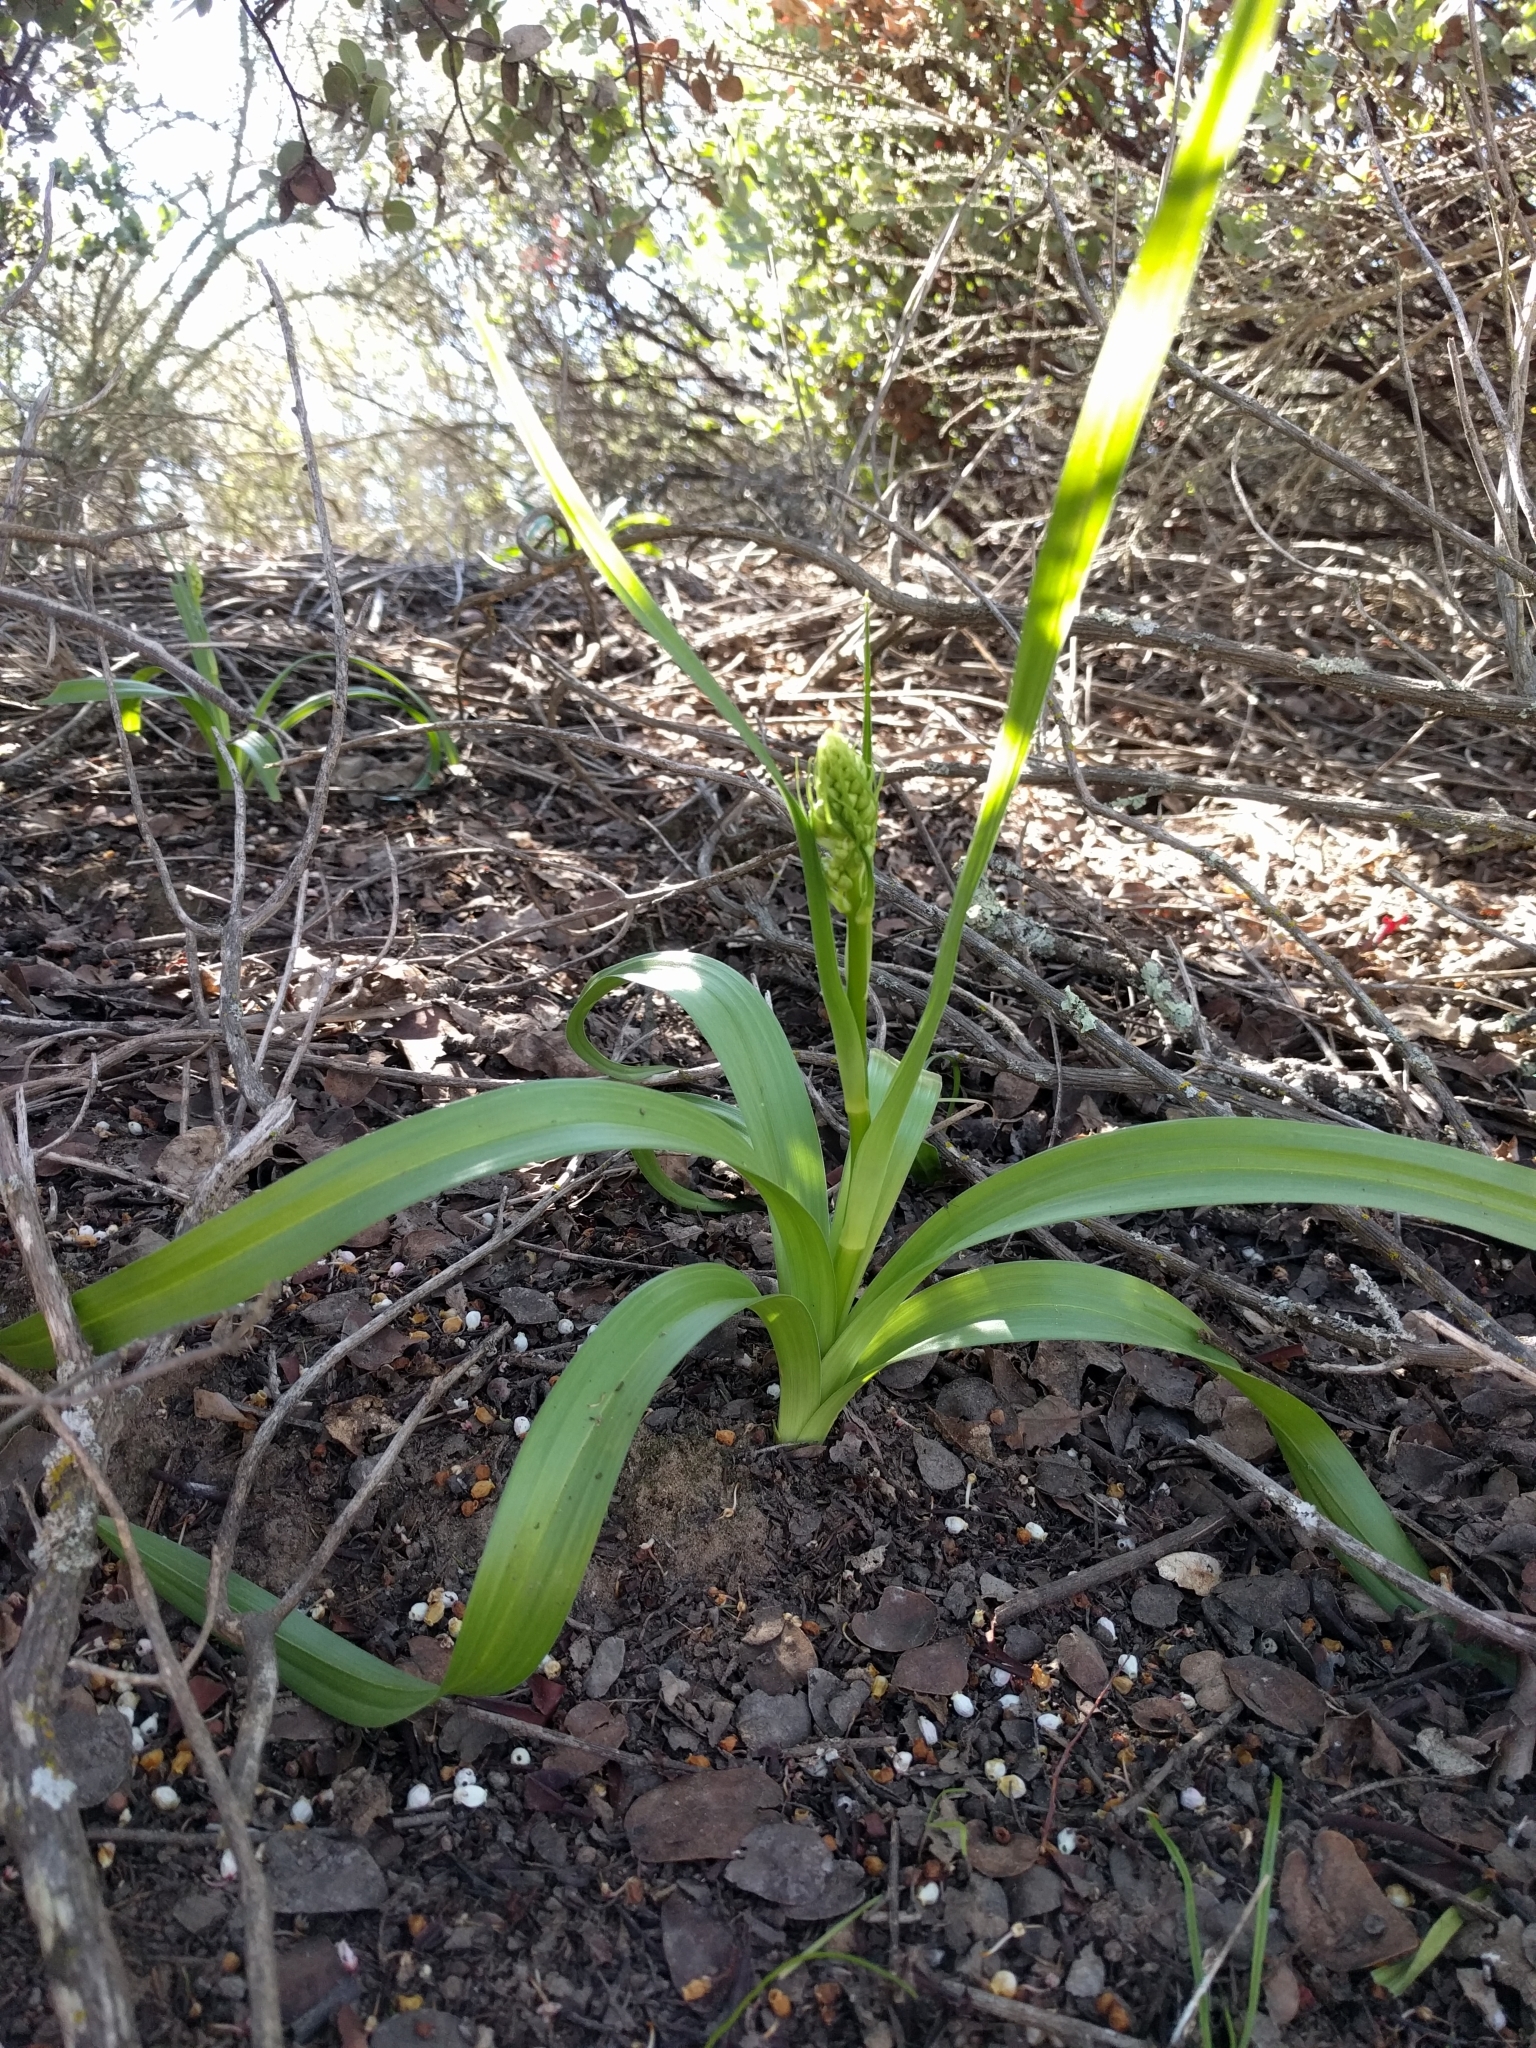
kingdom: Plantae
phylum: Tracheophyta
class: Liliopsida
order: Liliales
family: Melanthiaceae
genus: Toxicoscordion
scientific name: Toxicoscordion fremontii
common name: Fremont's death camas
